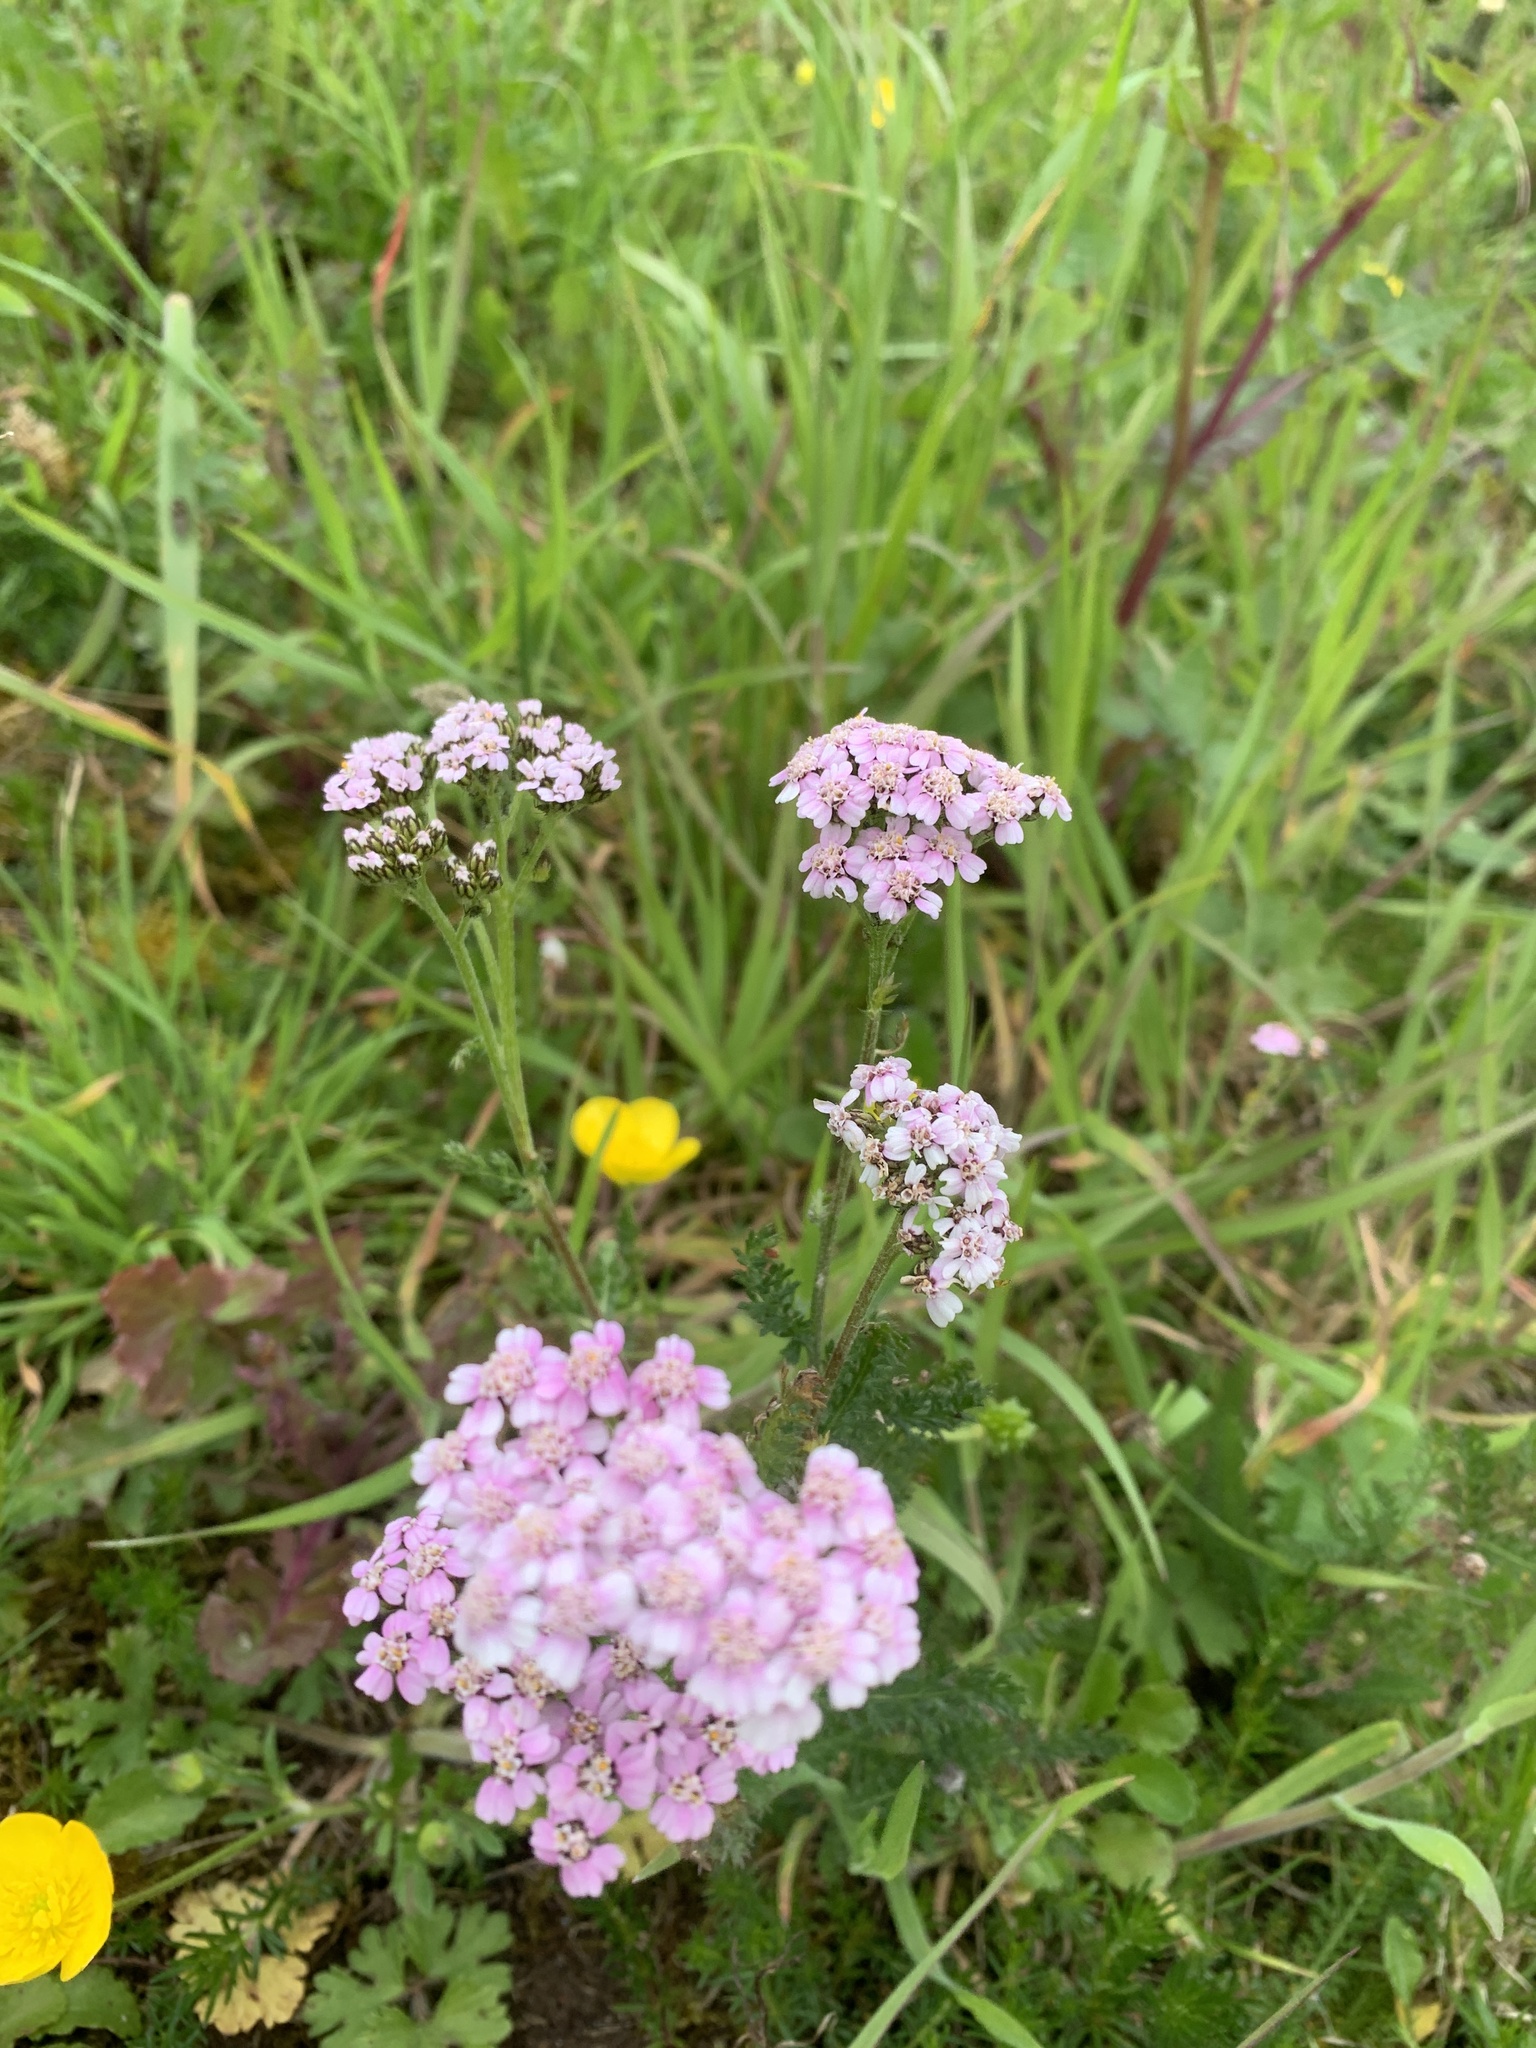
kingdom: Plantae
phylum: Tracheophyta
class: Magnoliopsida
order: Asterales
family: Asteraceae
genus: Achillea
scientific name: Achillea millefolium
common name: Yarrow
